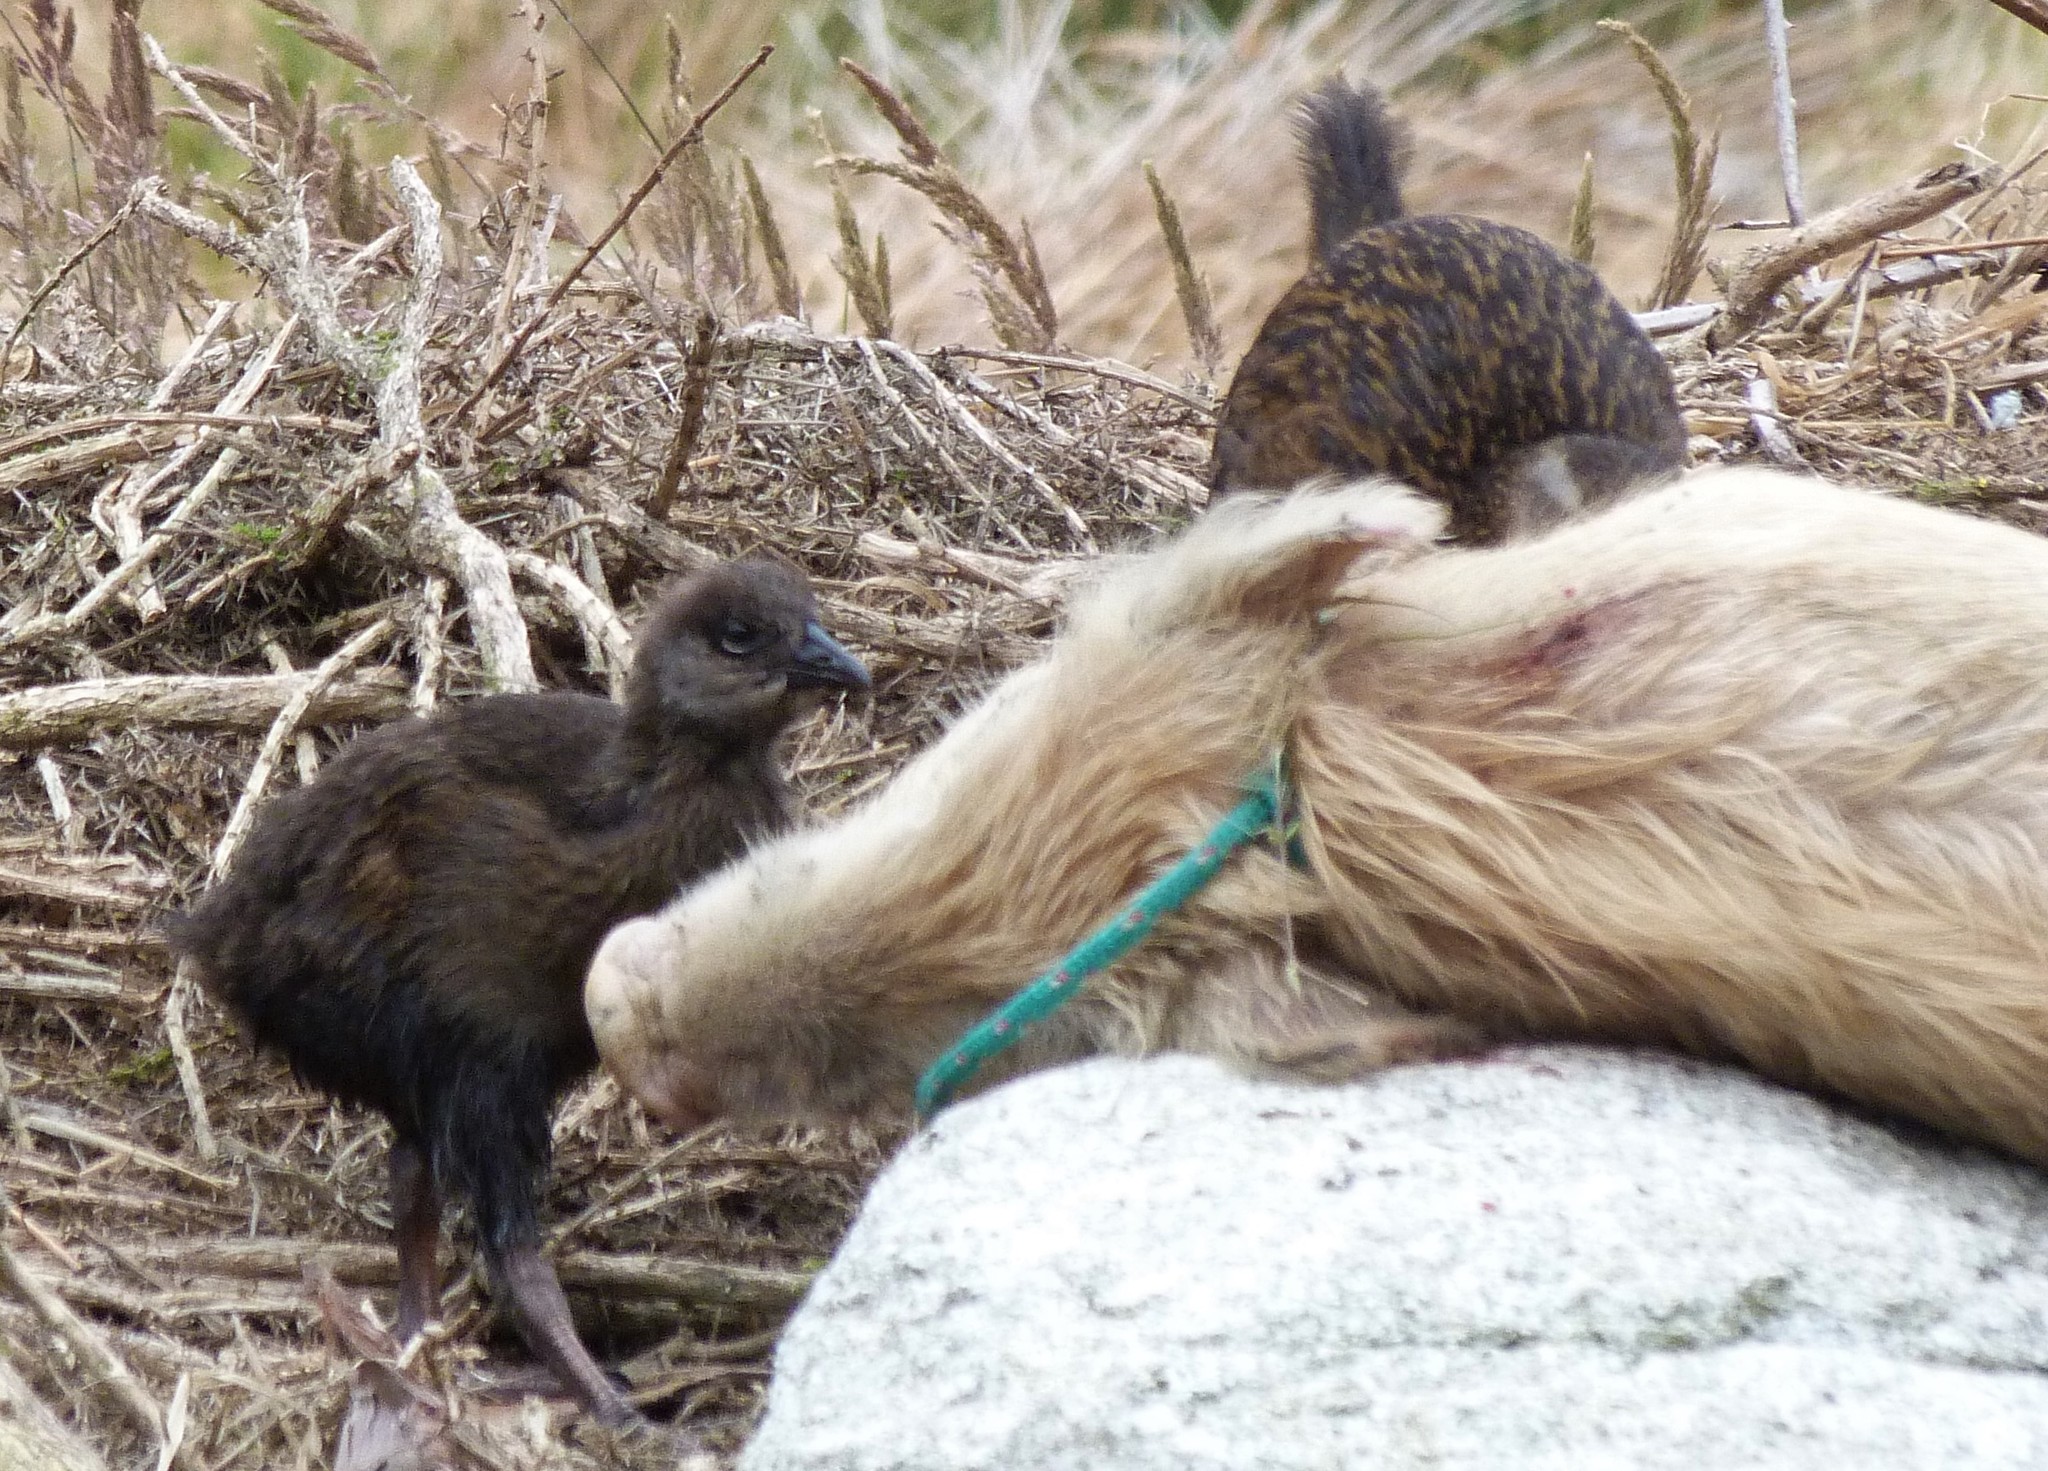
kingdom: Animalia
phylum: Chordata
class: Aves
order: Gruiformes
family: Rallidae
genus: Gallirallus
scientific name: Gallirallus australis
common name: Weka
